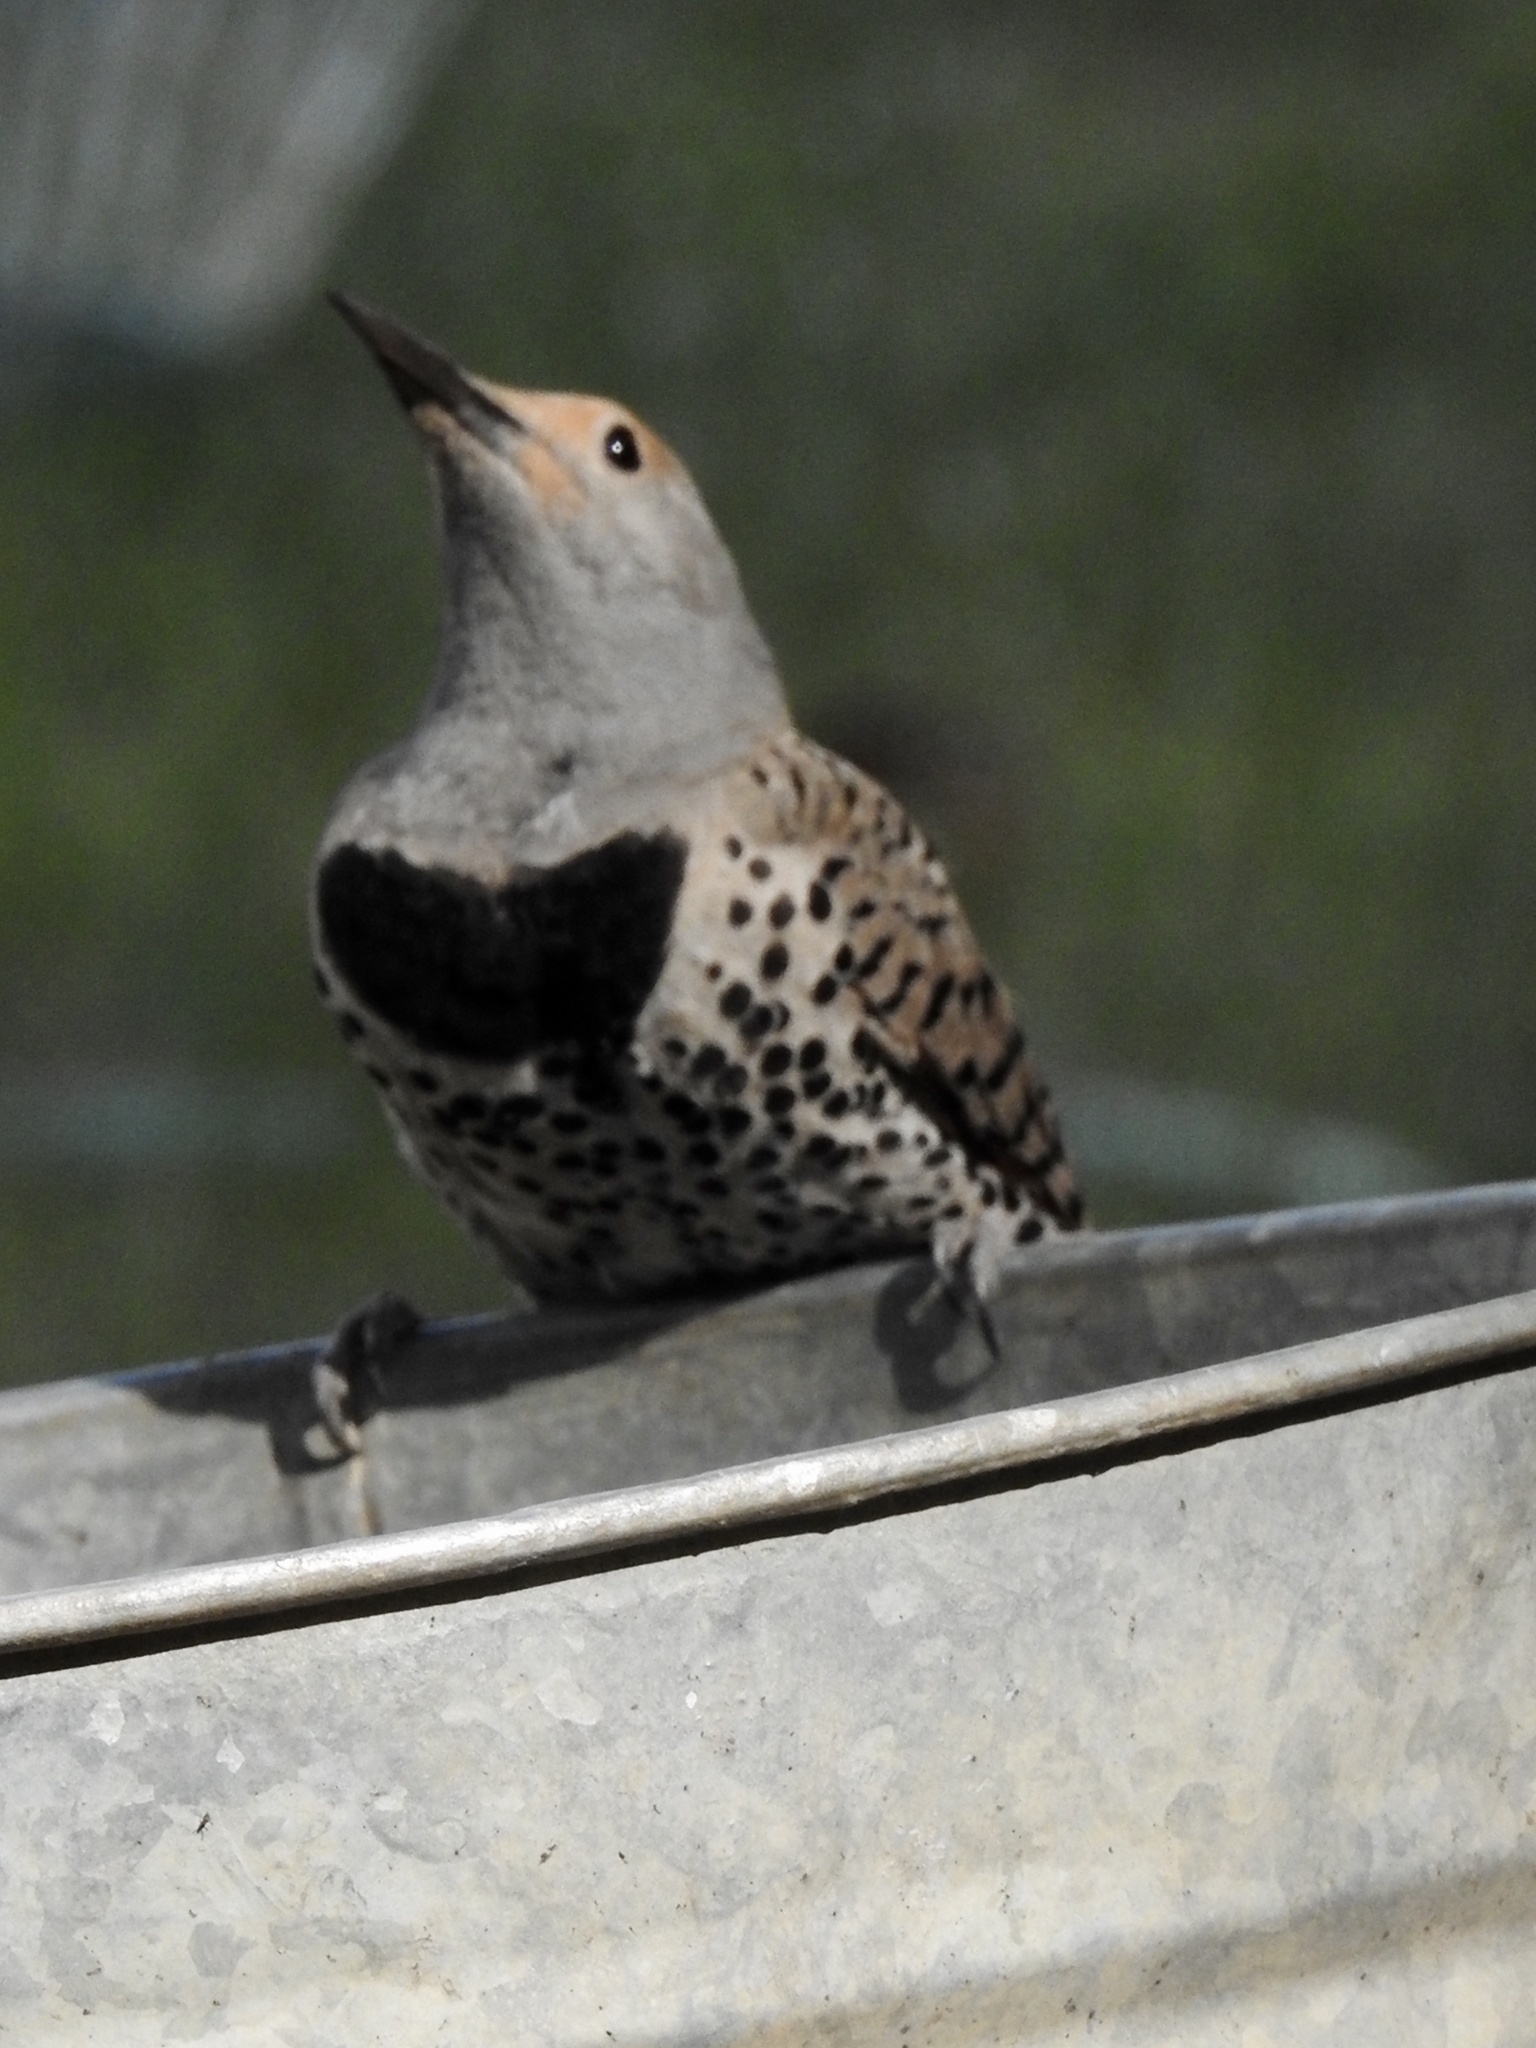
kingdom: Animalia
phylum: Chordata
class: Aves
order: Piciformes
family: Picidae
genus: Colaptes
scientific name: Colaptes auratus
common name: Northern flicker
